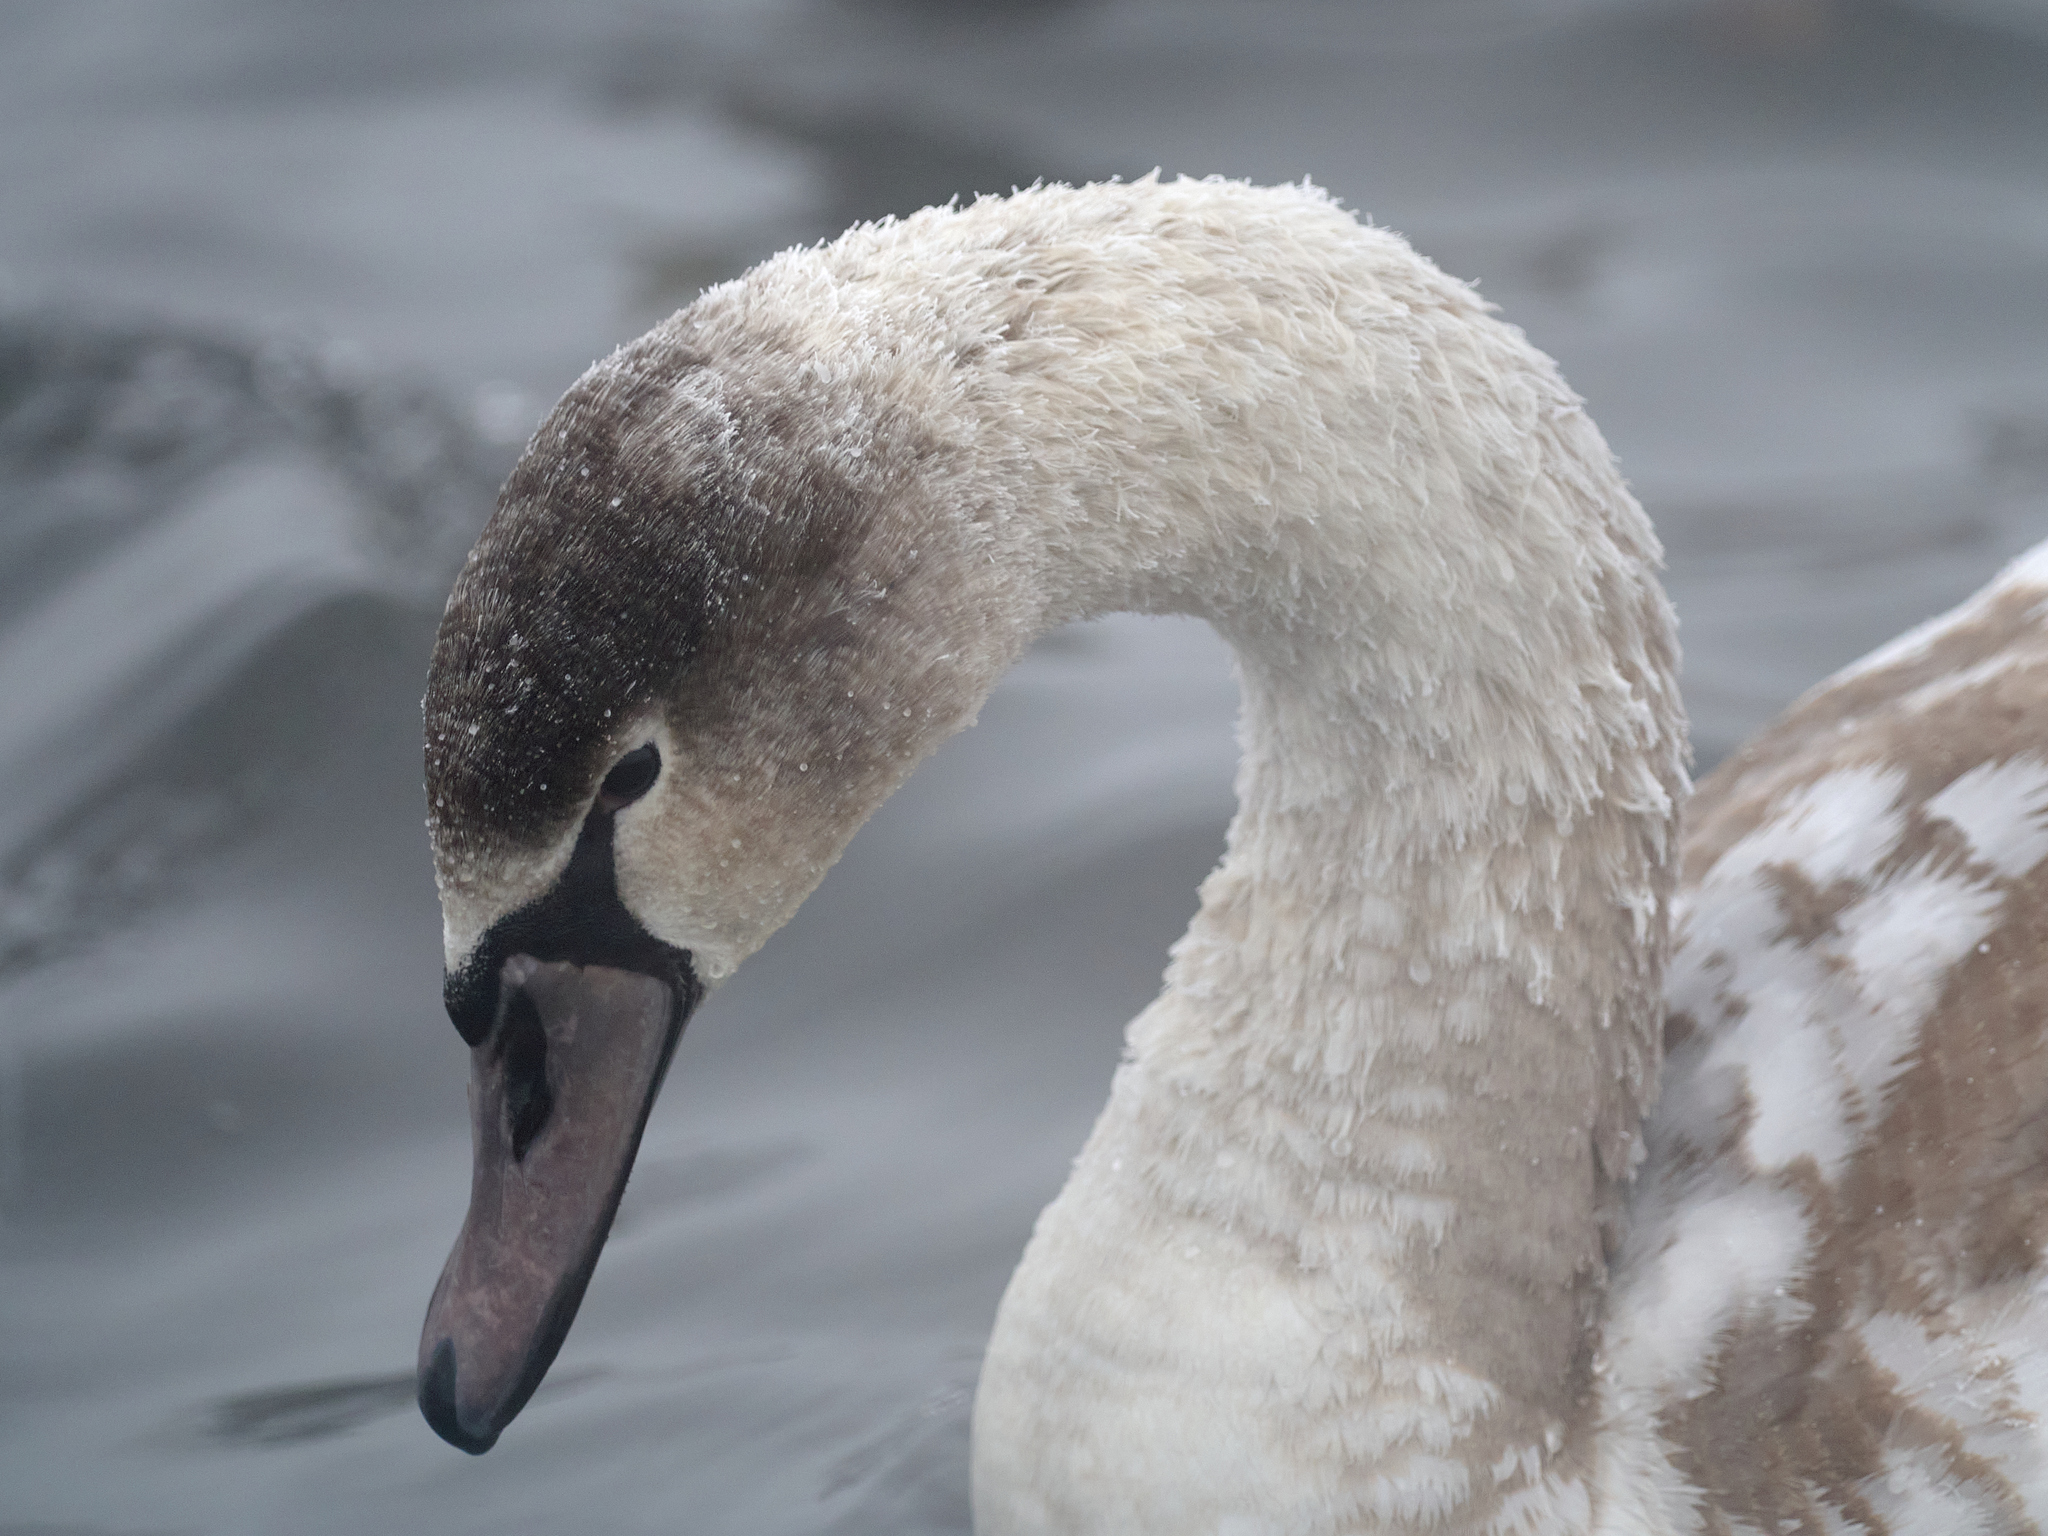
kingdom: Animalia
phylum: Chordata
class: Aves
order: Anseriformes
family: Anatidae
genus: Cygnus
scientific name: Cygnus olor
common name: Mute swan
